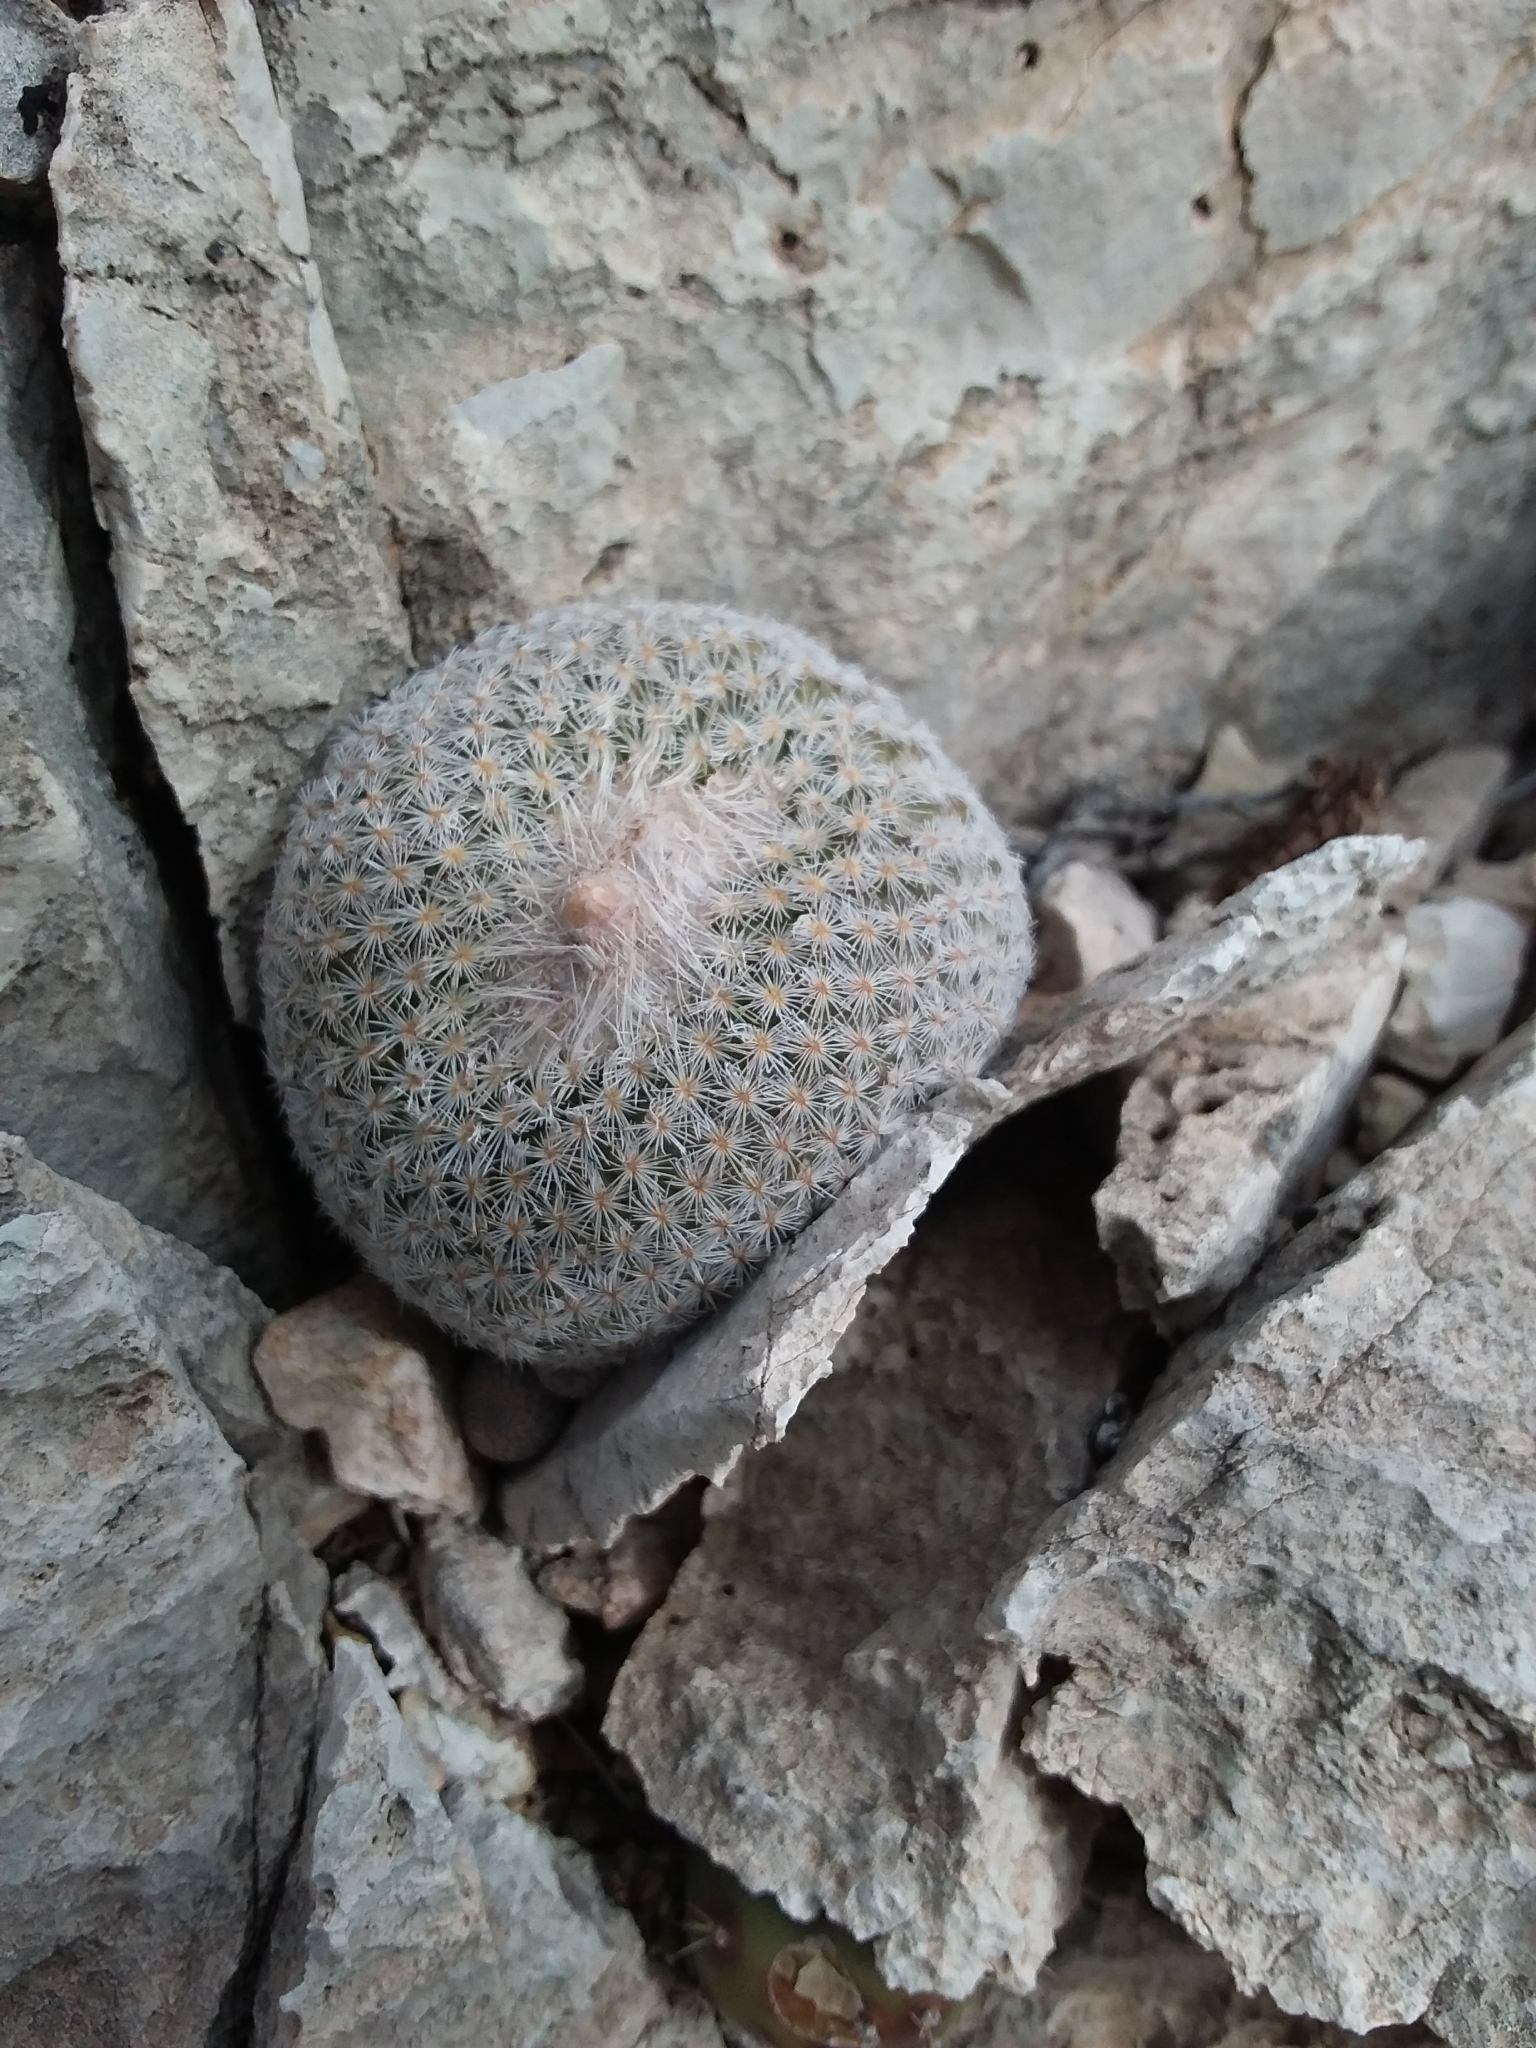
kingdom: Plantae
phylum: Tracheophyta
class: Magnoliopsida
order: Caryophyllales
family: Cactaceae
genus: Epithelantha
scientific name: Epithelantha micromeris
